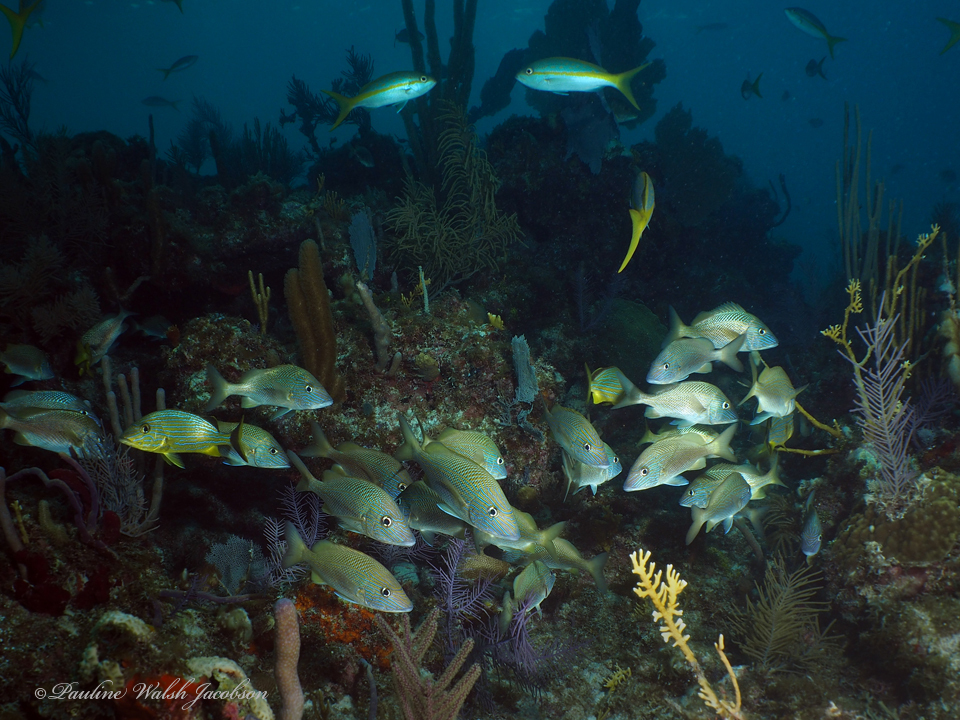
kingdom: Animalia
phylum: Chordata
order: Perciformes
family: Haemulidae
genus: Haemulon
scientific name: Haemulon sciurus
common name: Bluestriped grunt
